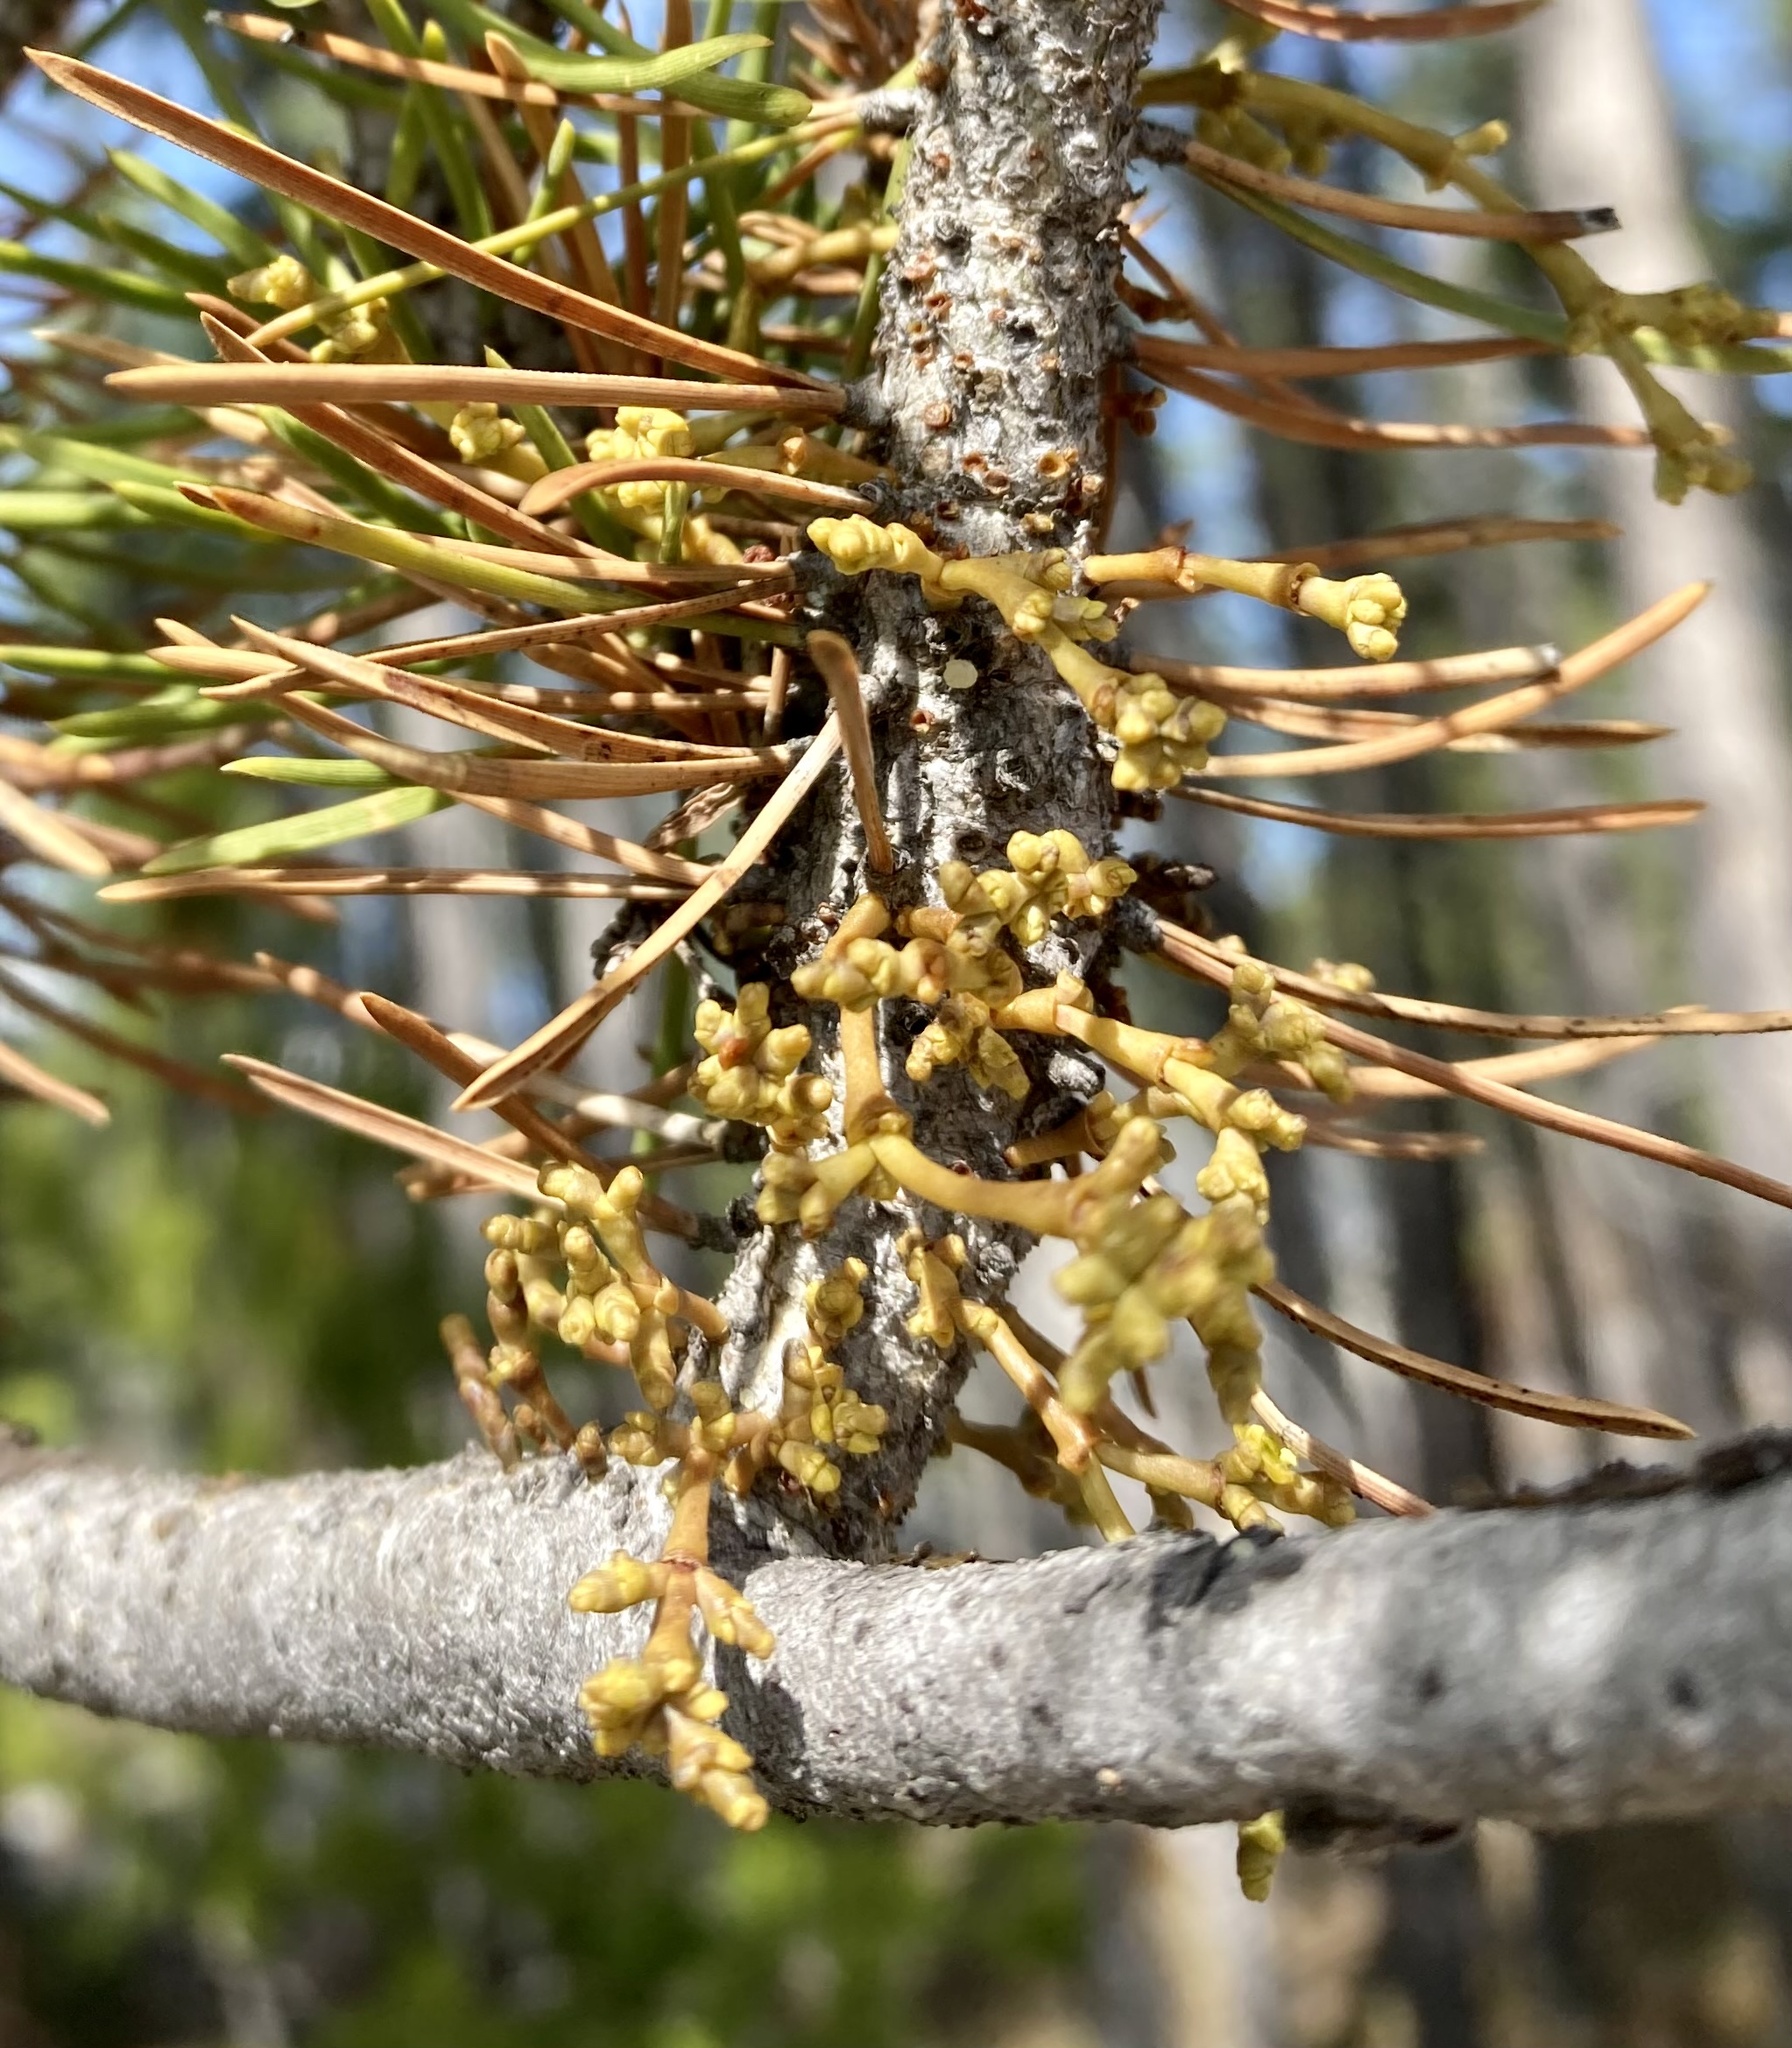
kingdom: Plantae
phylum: Tracheophyta
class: Magnoliopsida
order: Santalales
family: Viscaceae
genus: Arceuthobium
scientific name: Arceuthobium americanum
